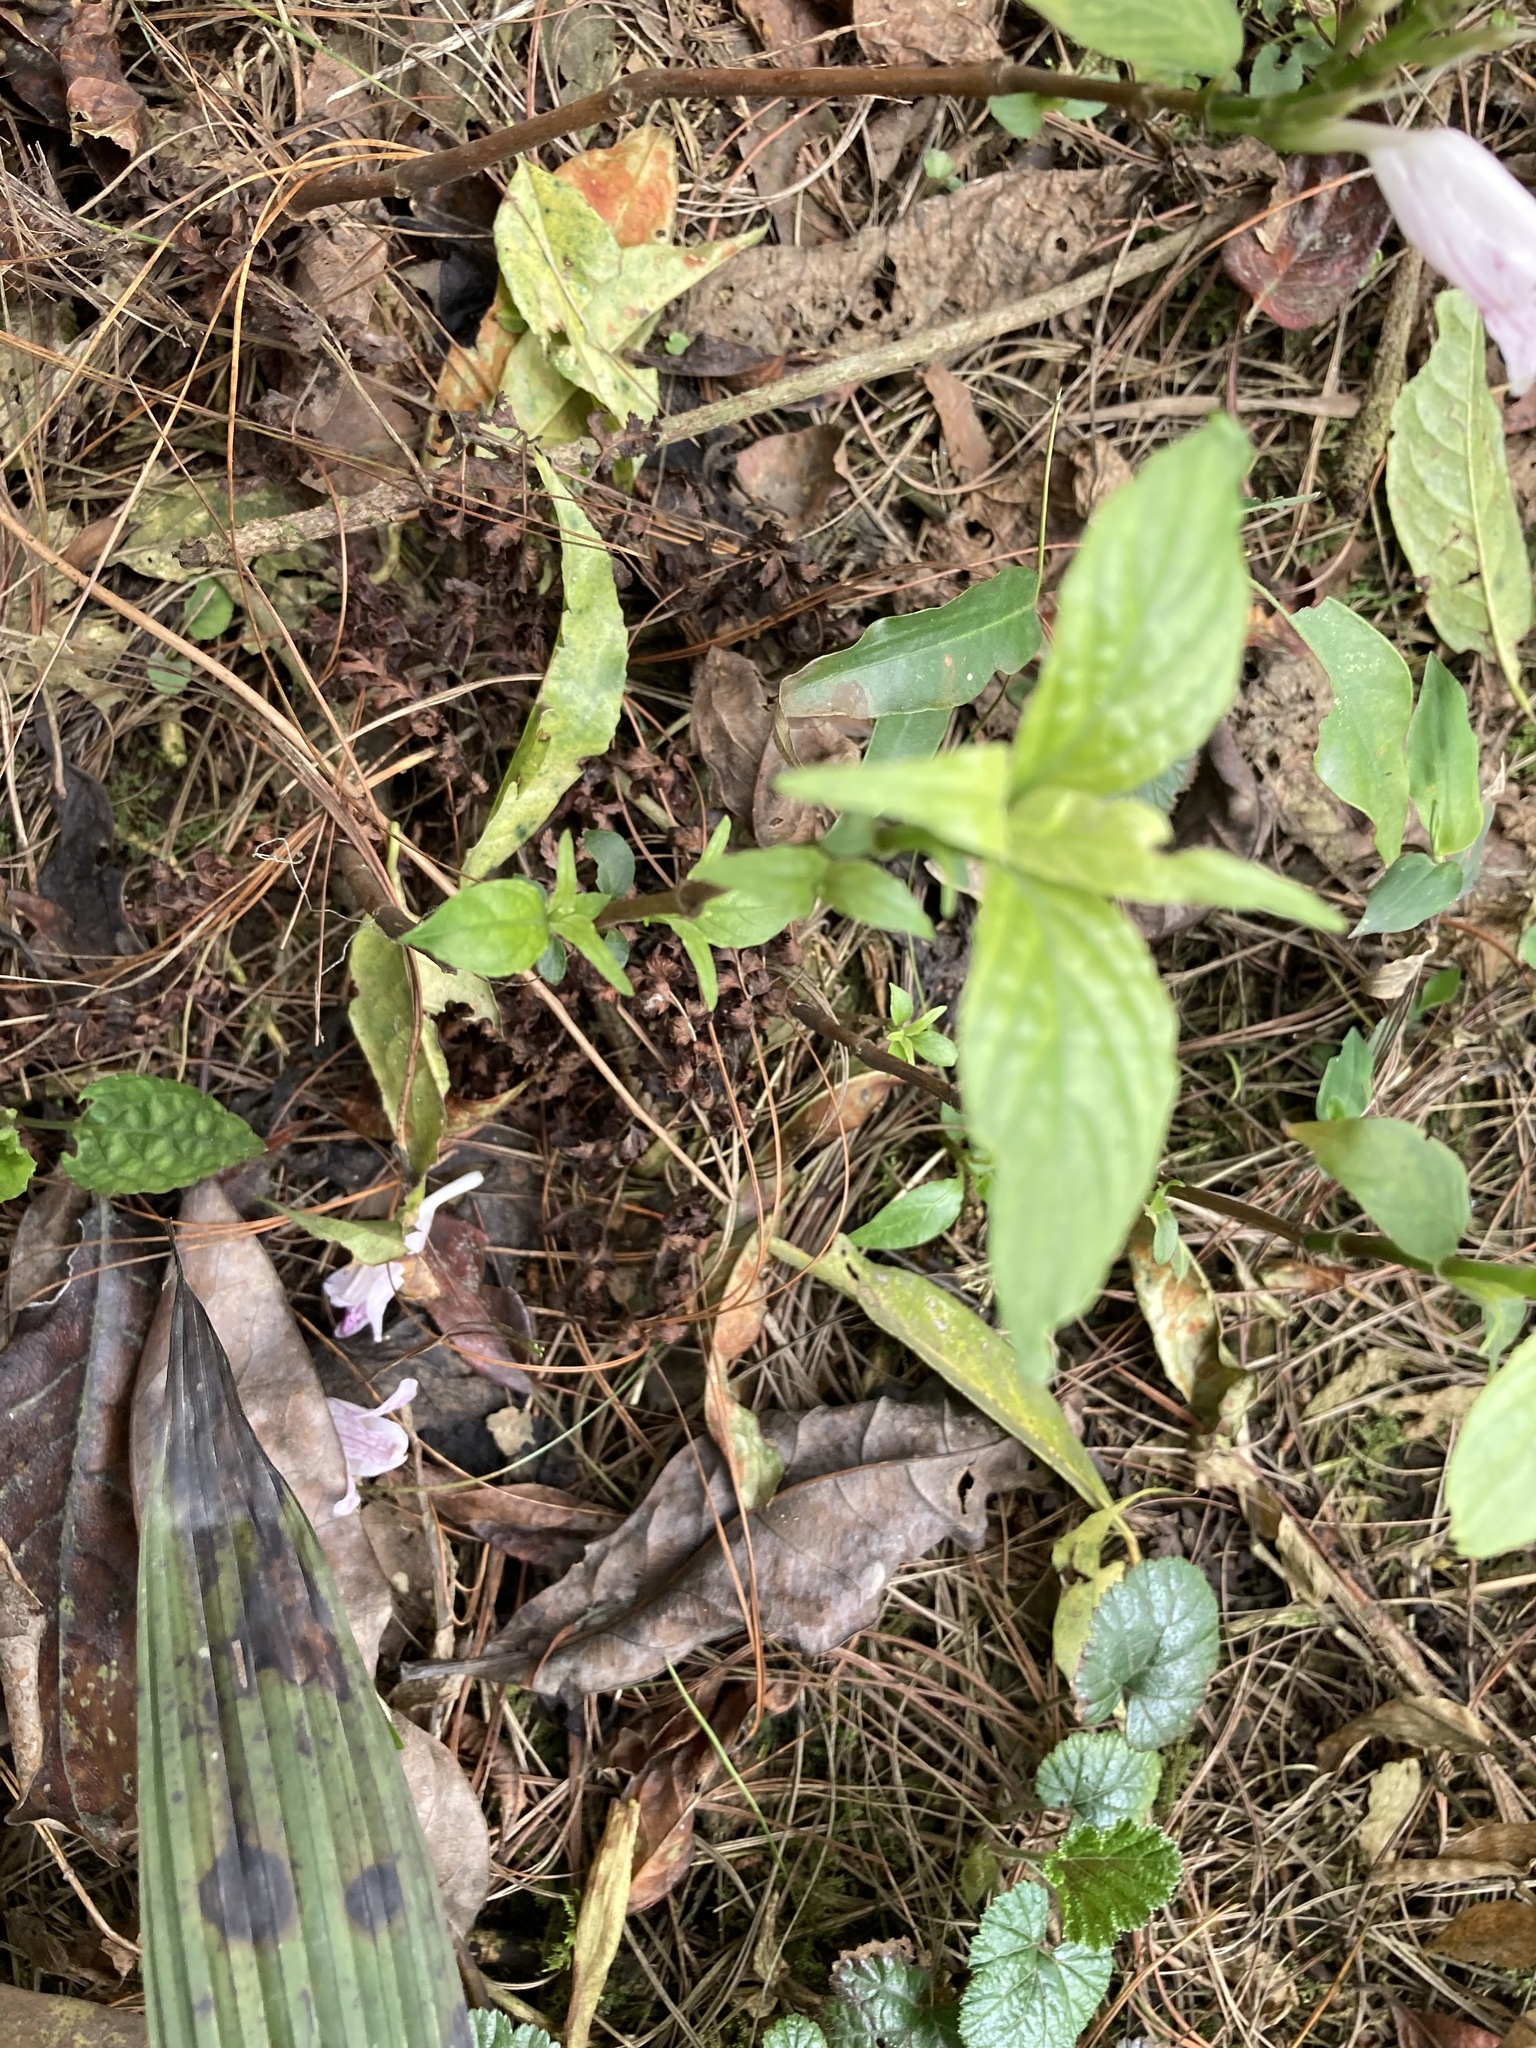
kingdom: Plantae
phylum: Tracheophyta
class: Magnoliopsida
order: Lamiales
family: Acanthaceae
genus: Mackaya
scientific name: Mackaya macrocarpa
